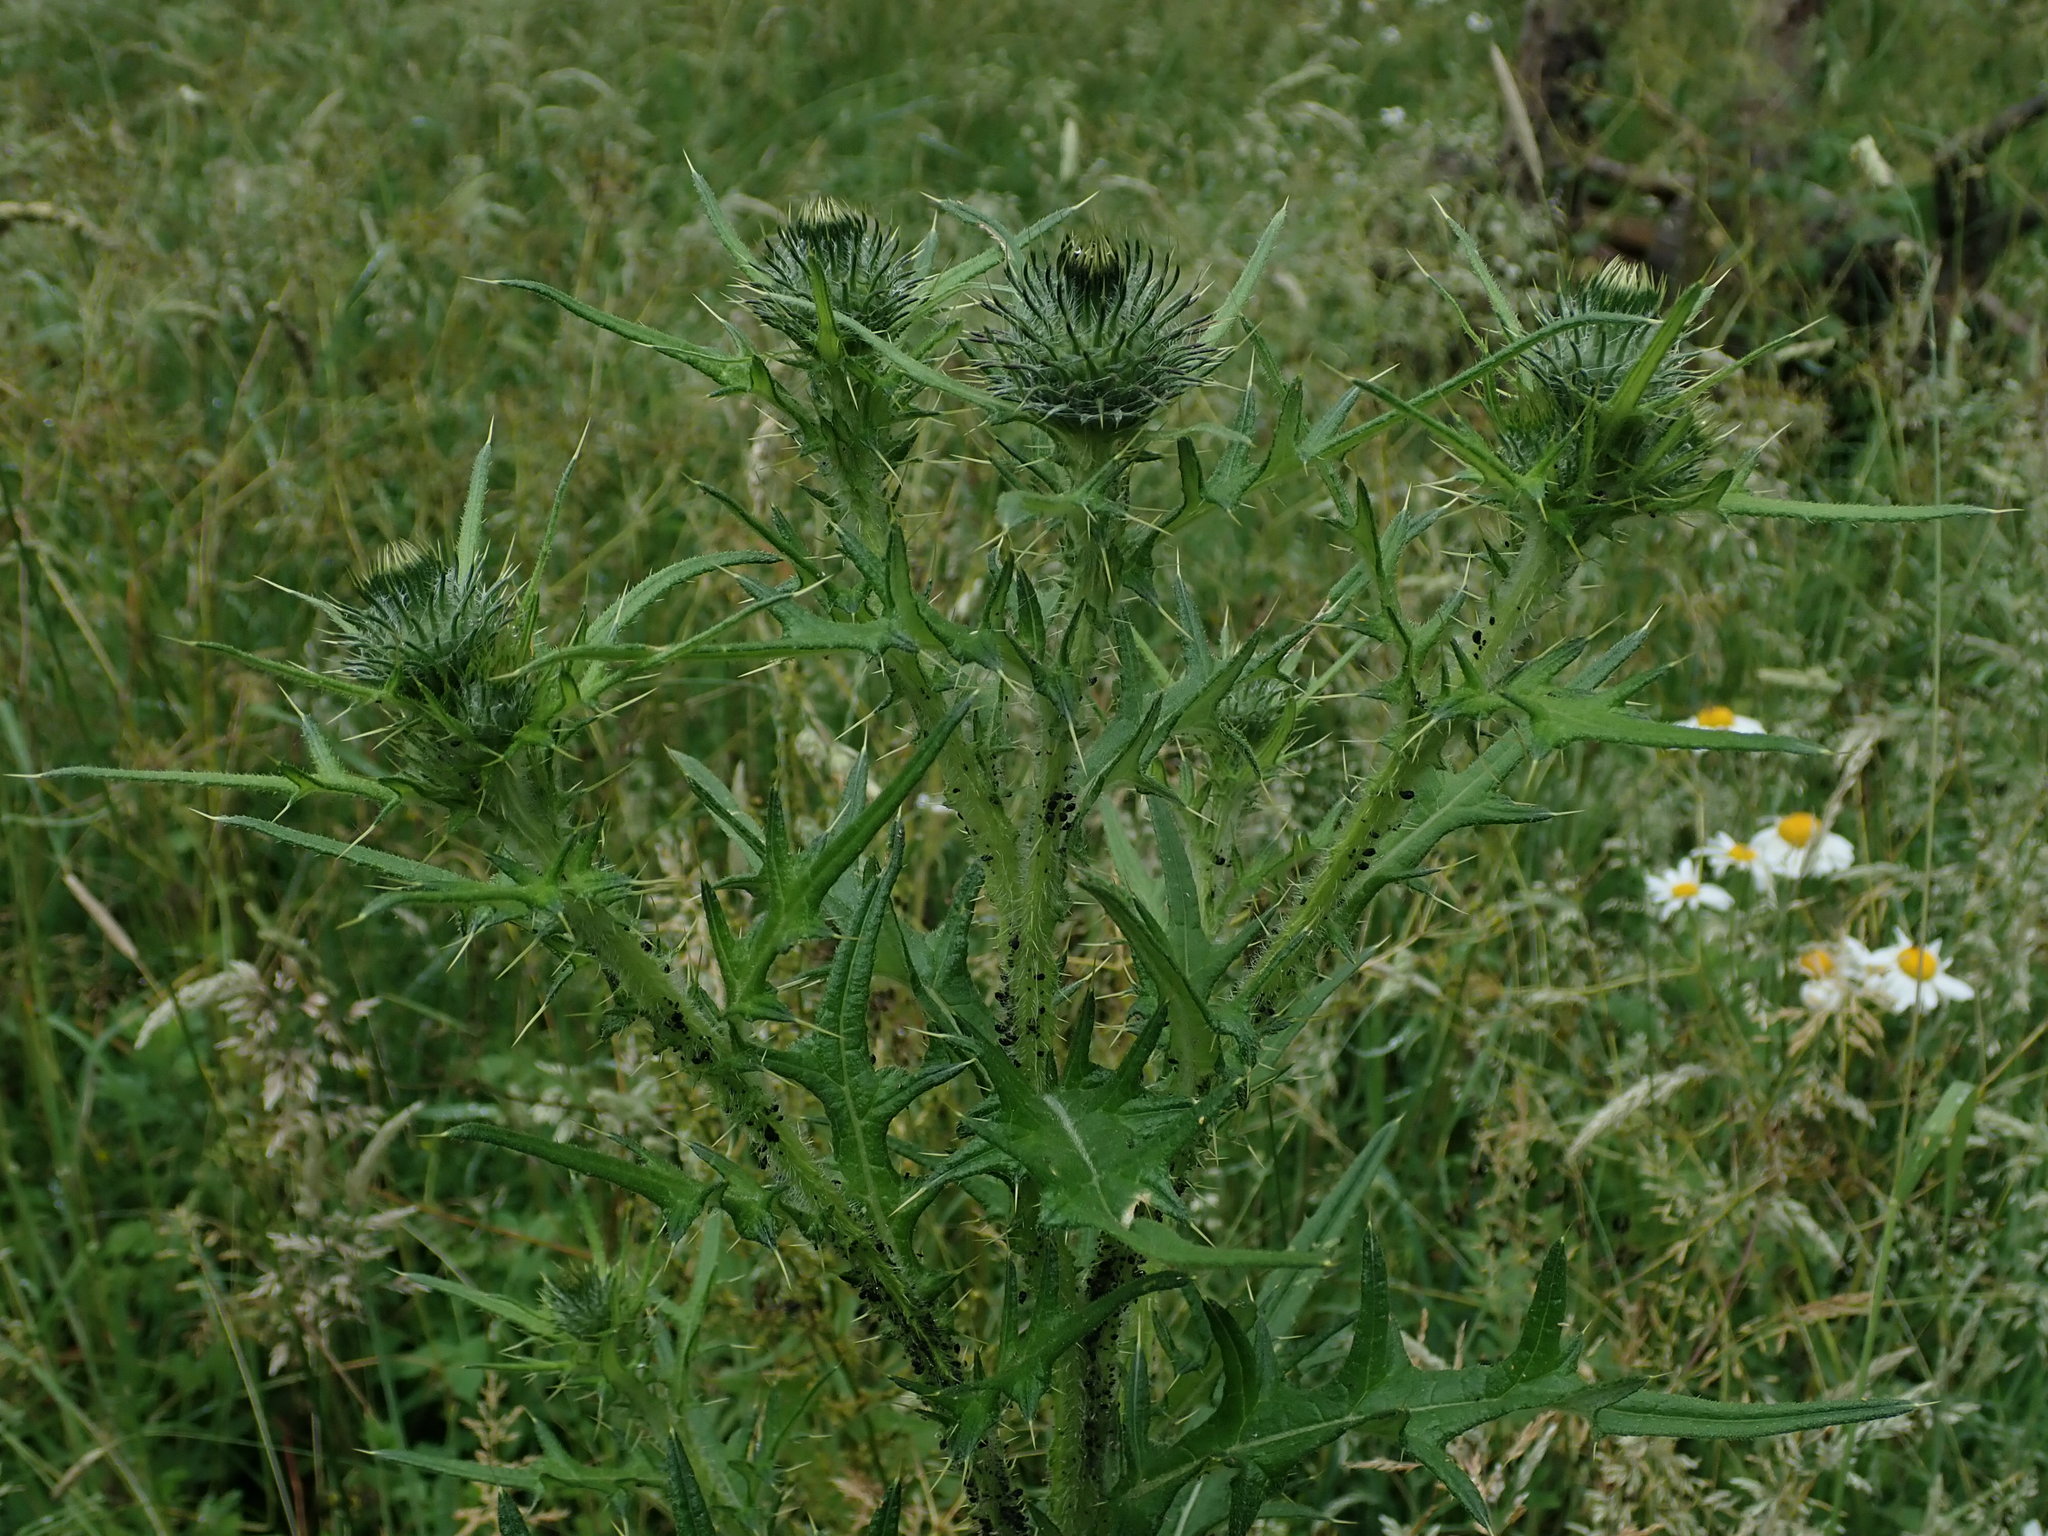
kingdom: Plantae
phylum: Tracheophyta
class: Magnoliopsida
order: Asterales
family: Asteraceae
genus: Cirsium
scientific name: Cirsium vulgare
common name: Bull thistle
